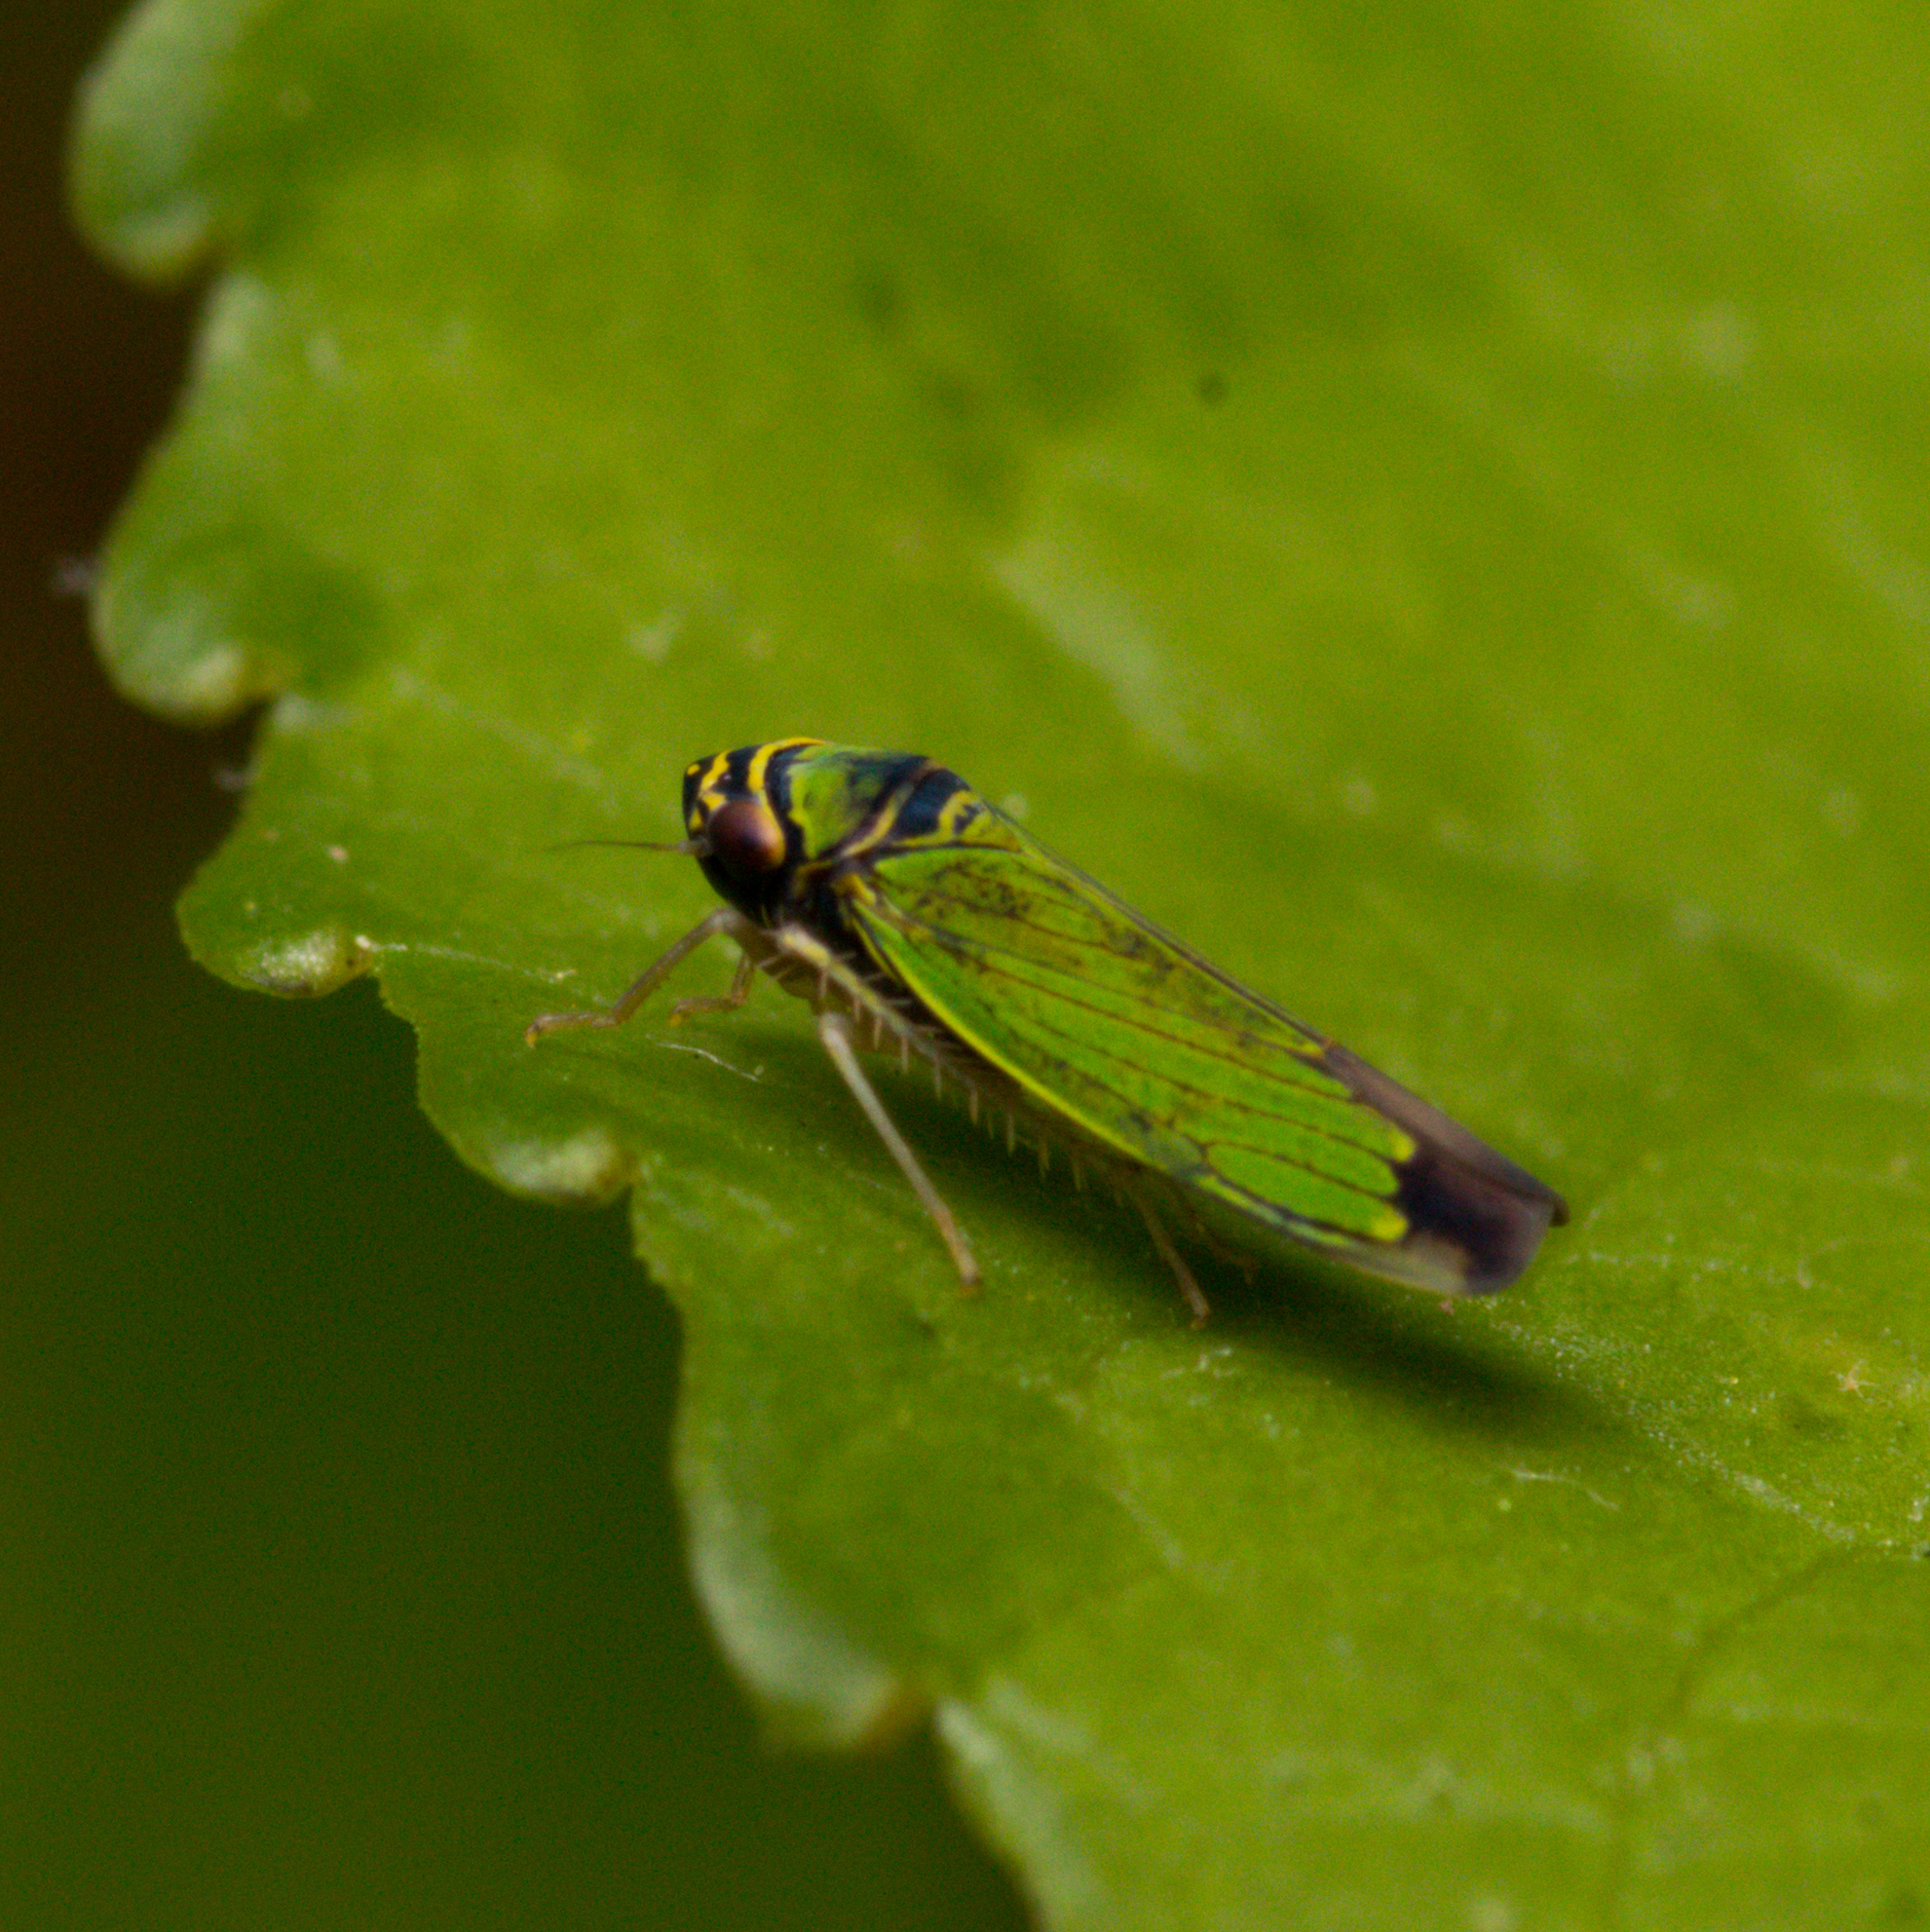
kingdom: Animalia
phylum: Arthropoda
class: Insecta
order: Hemiptera
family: Cicadellidae
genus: Tylozygus
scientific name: Tylozygus geometricus
